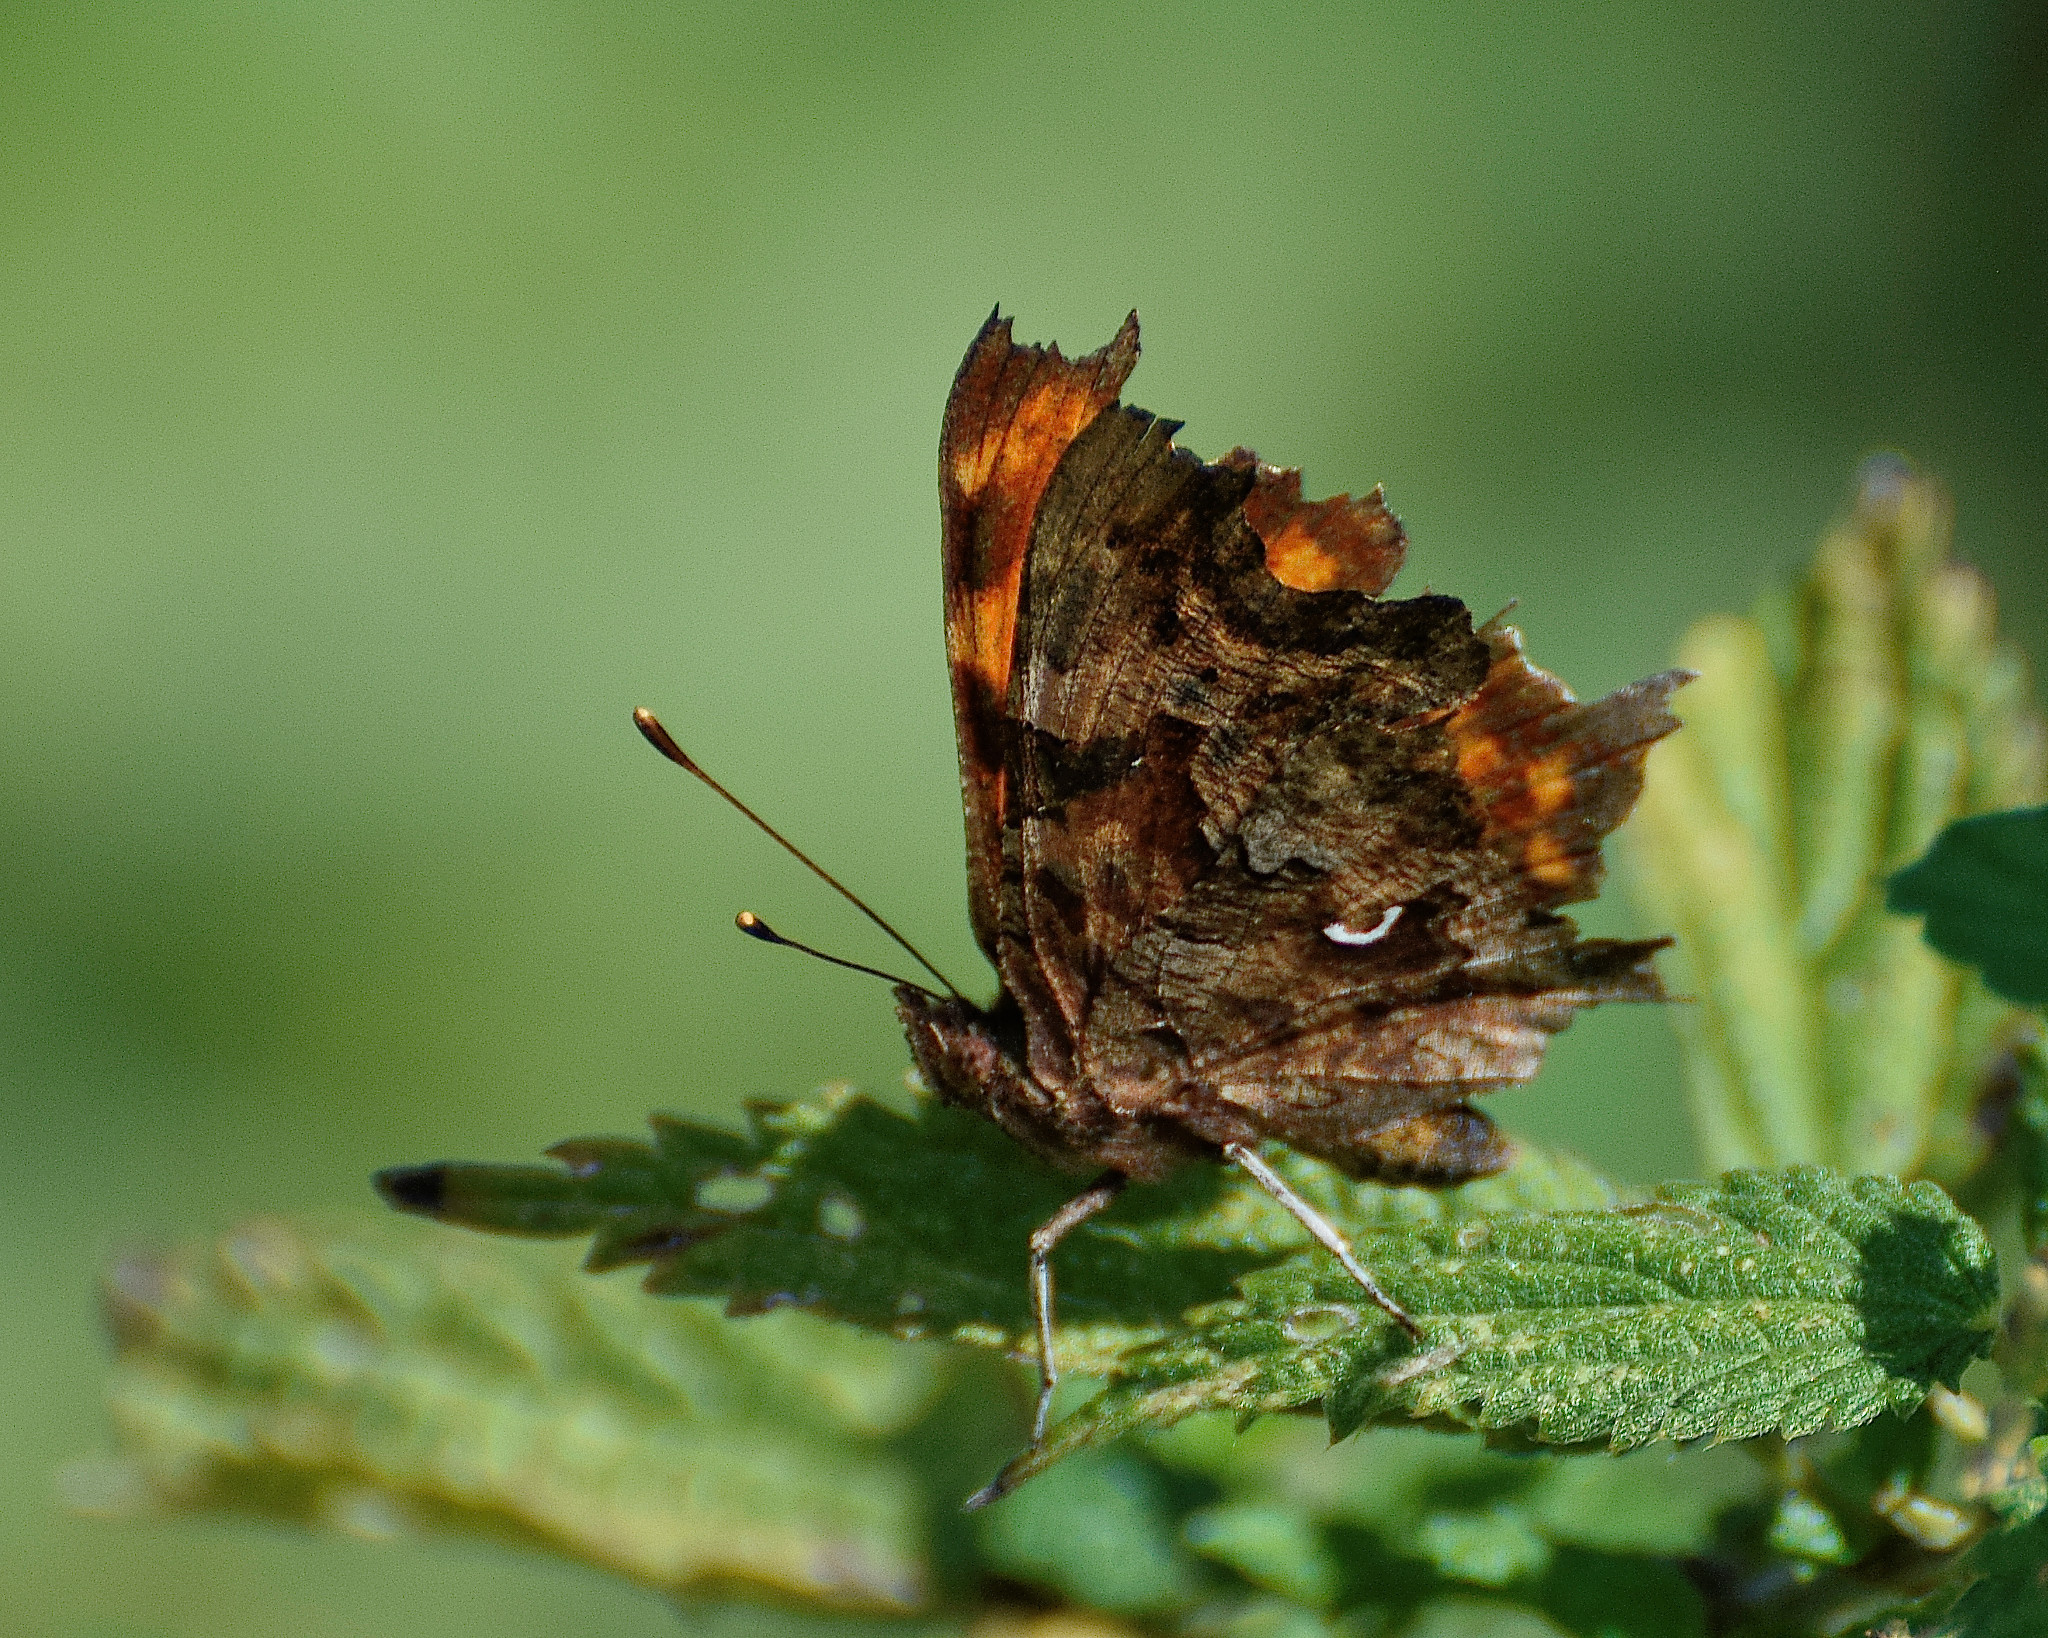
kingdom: Animalia
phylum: Arthropoda
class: Insecta
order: Lepidoptera
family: Nymphalidae
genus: Polygonia
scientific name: Polygonia c-album
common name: Comma
